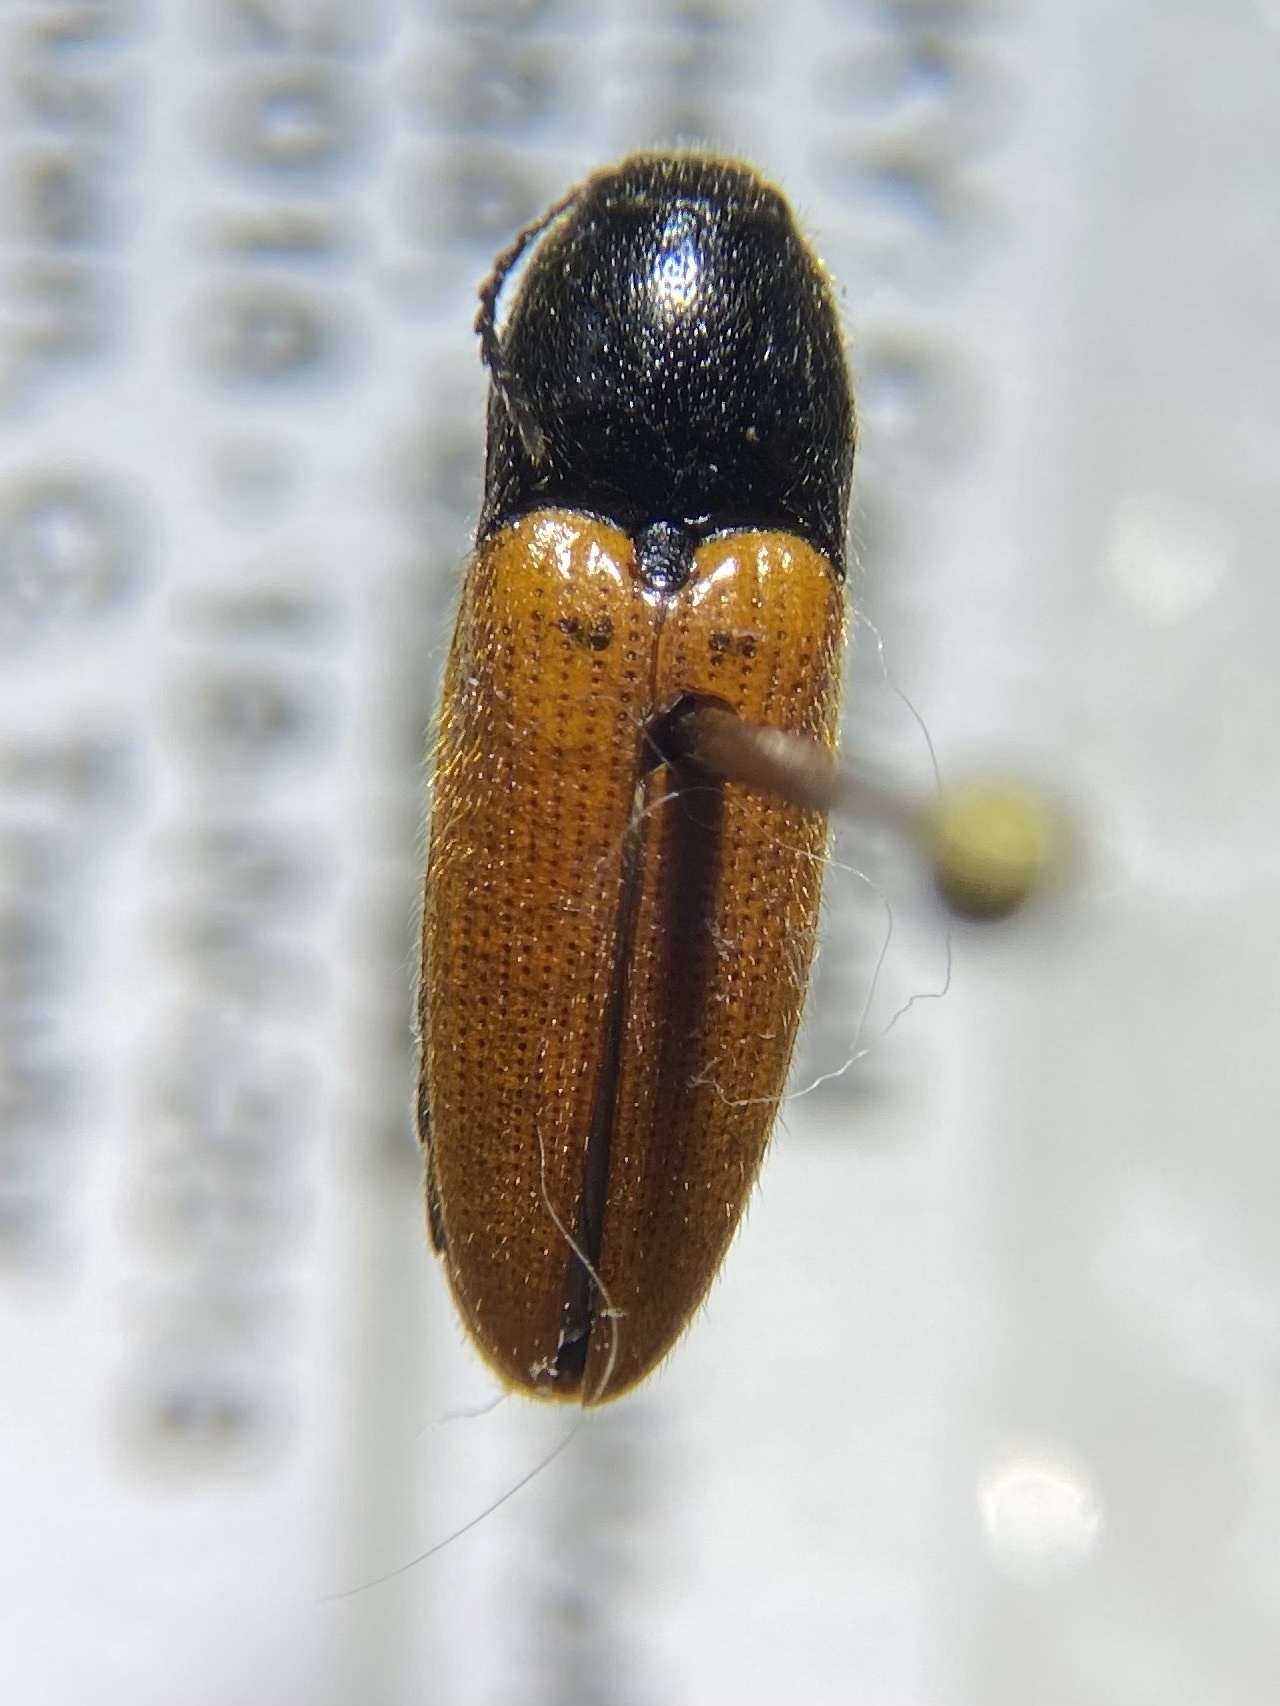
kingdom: Animalia
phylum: Arthropoda
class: Insecta
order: Coleoptera
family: Elateridae
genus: Ampedus
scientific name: Ampedus sanguinipennis
